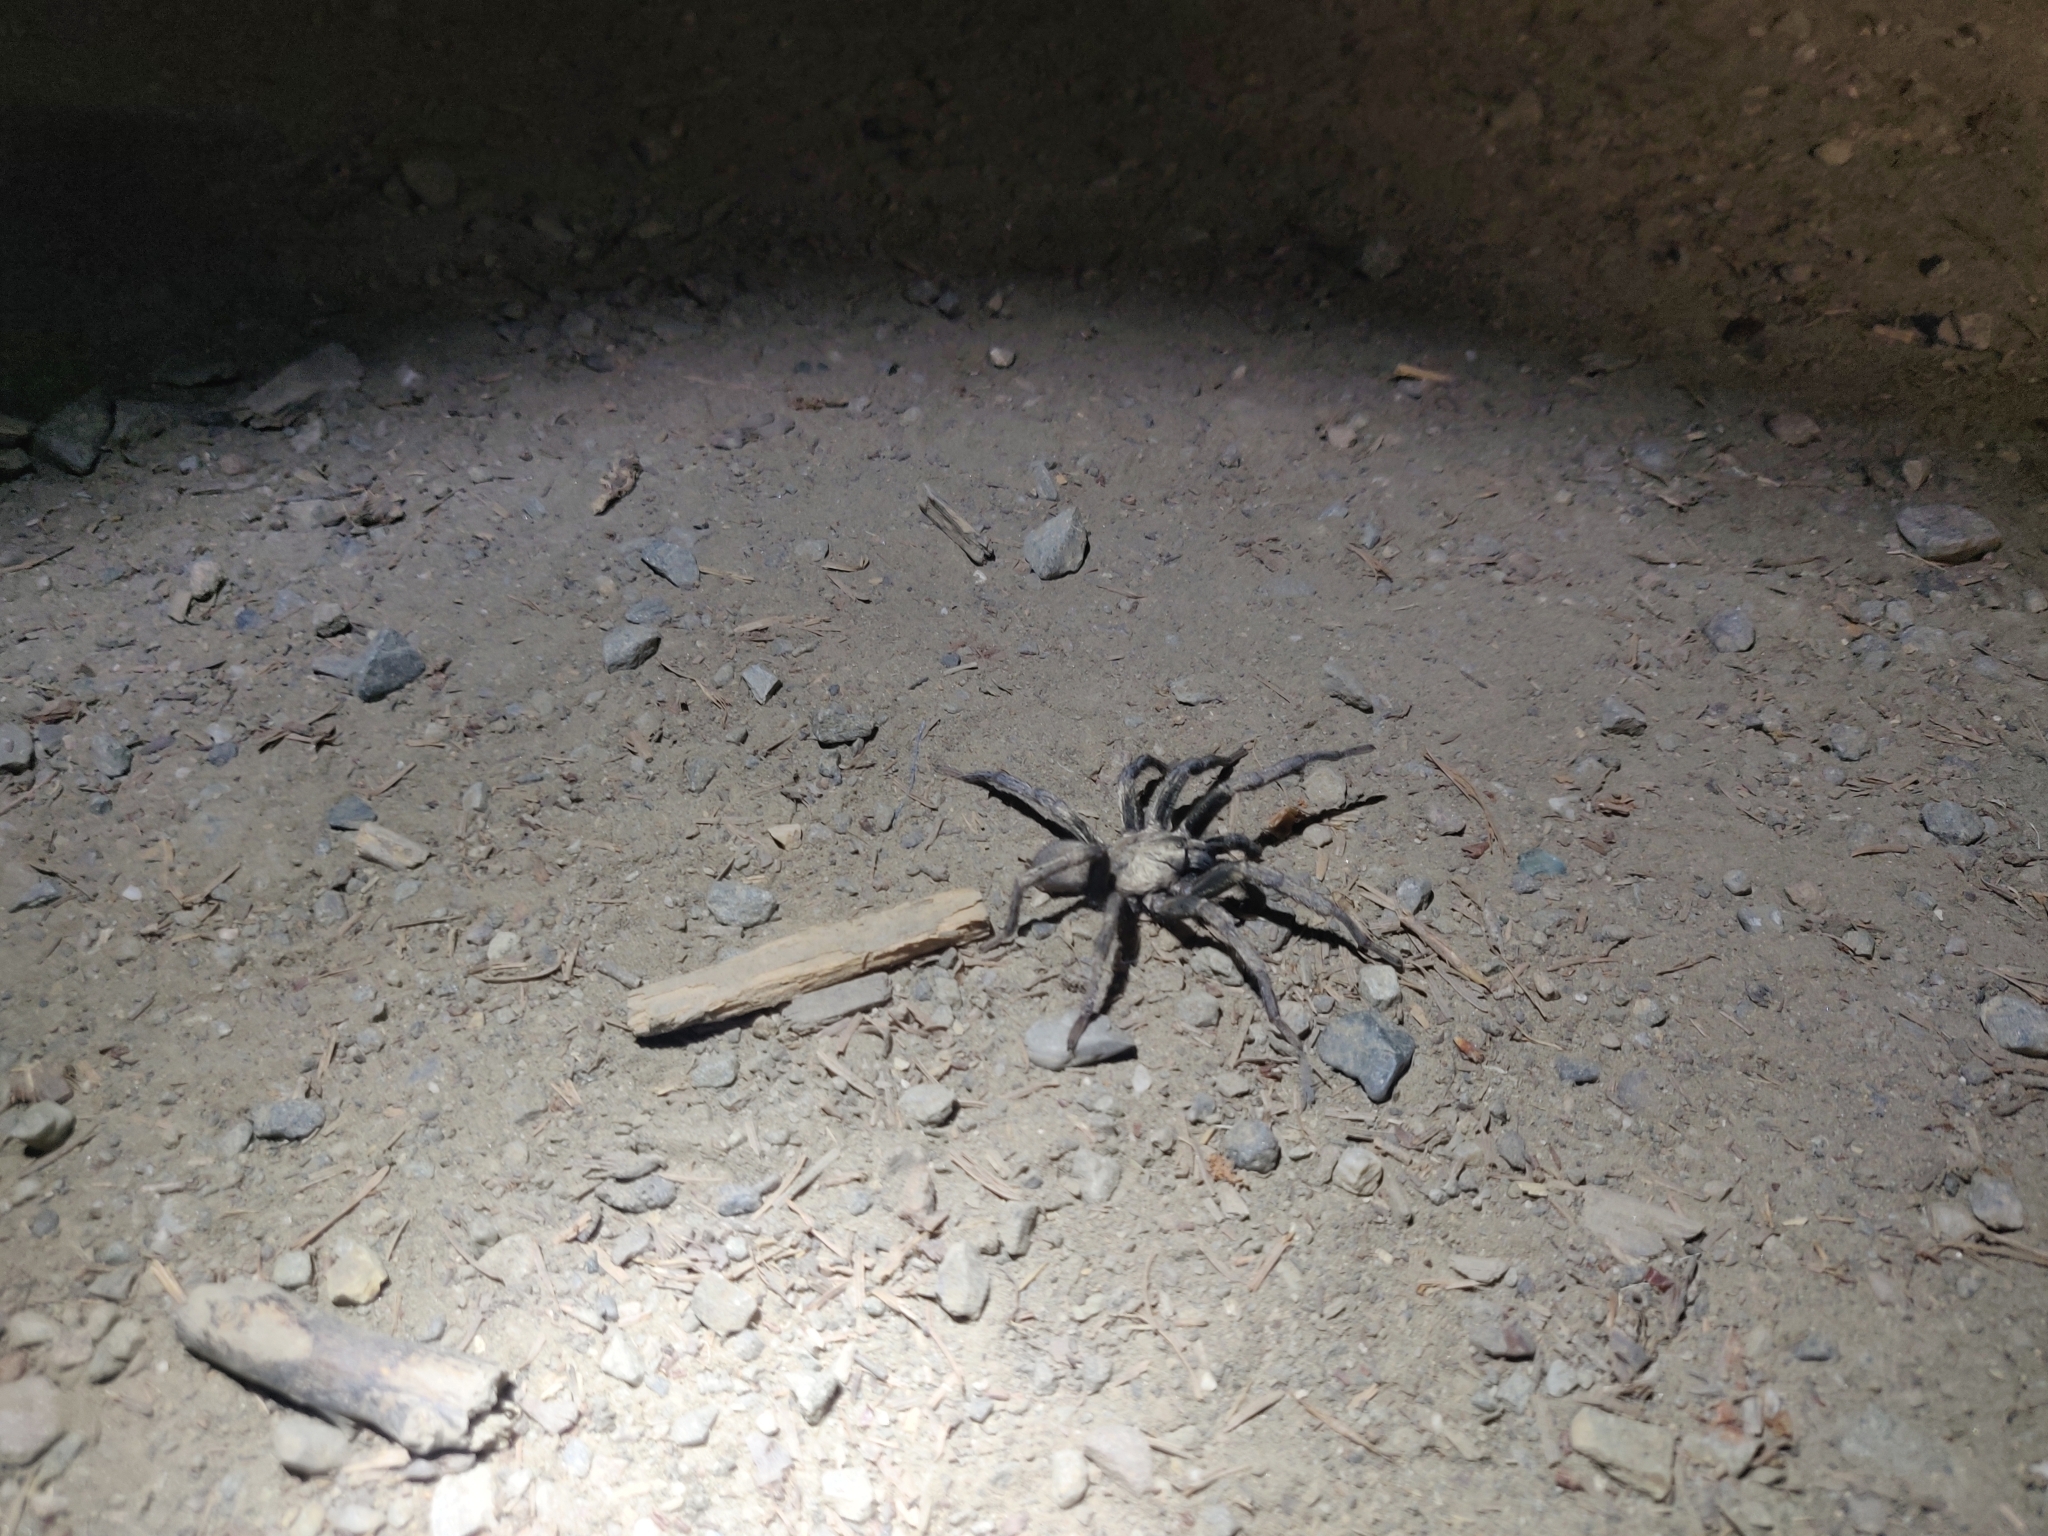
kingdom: Animalia
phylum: Arthropoda
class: Arachnida
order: Araneae
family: Nemesiidae
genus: Calisoga
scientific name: Calisoga longitarsis
